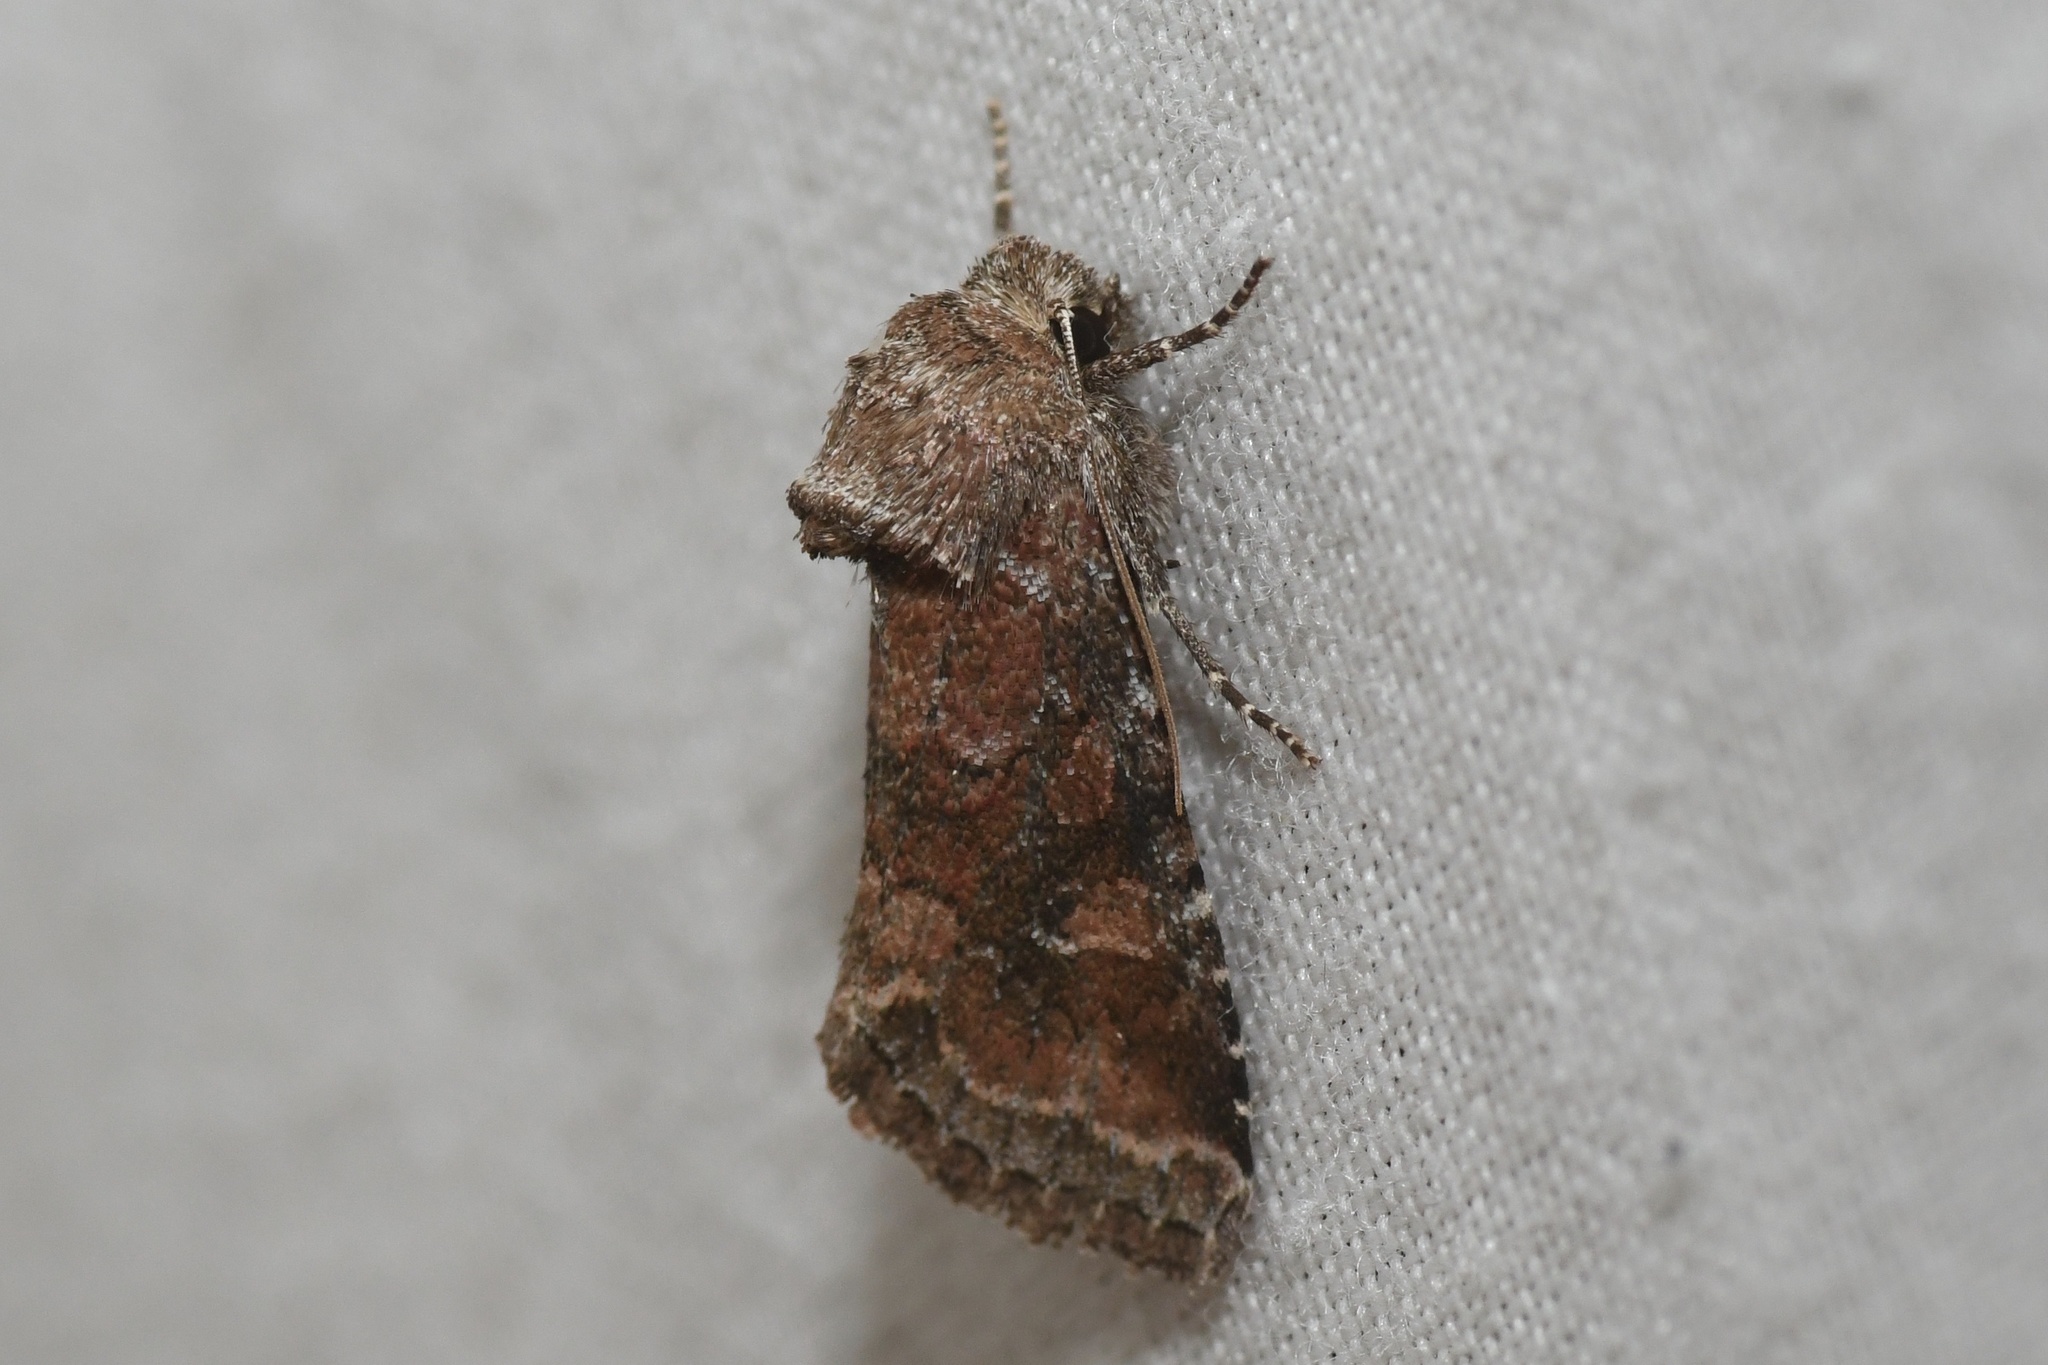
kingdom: Animalia
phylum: Arthropoda
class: Insecta
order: Lepidoptera
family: Noctuidae
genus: Lacinipolia
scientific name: Lacinipolia meditata
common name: Thinker moth
